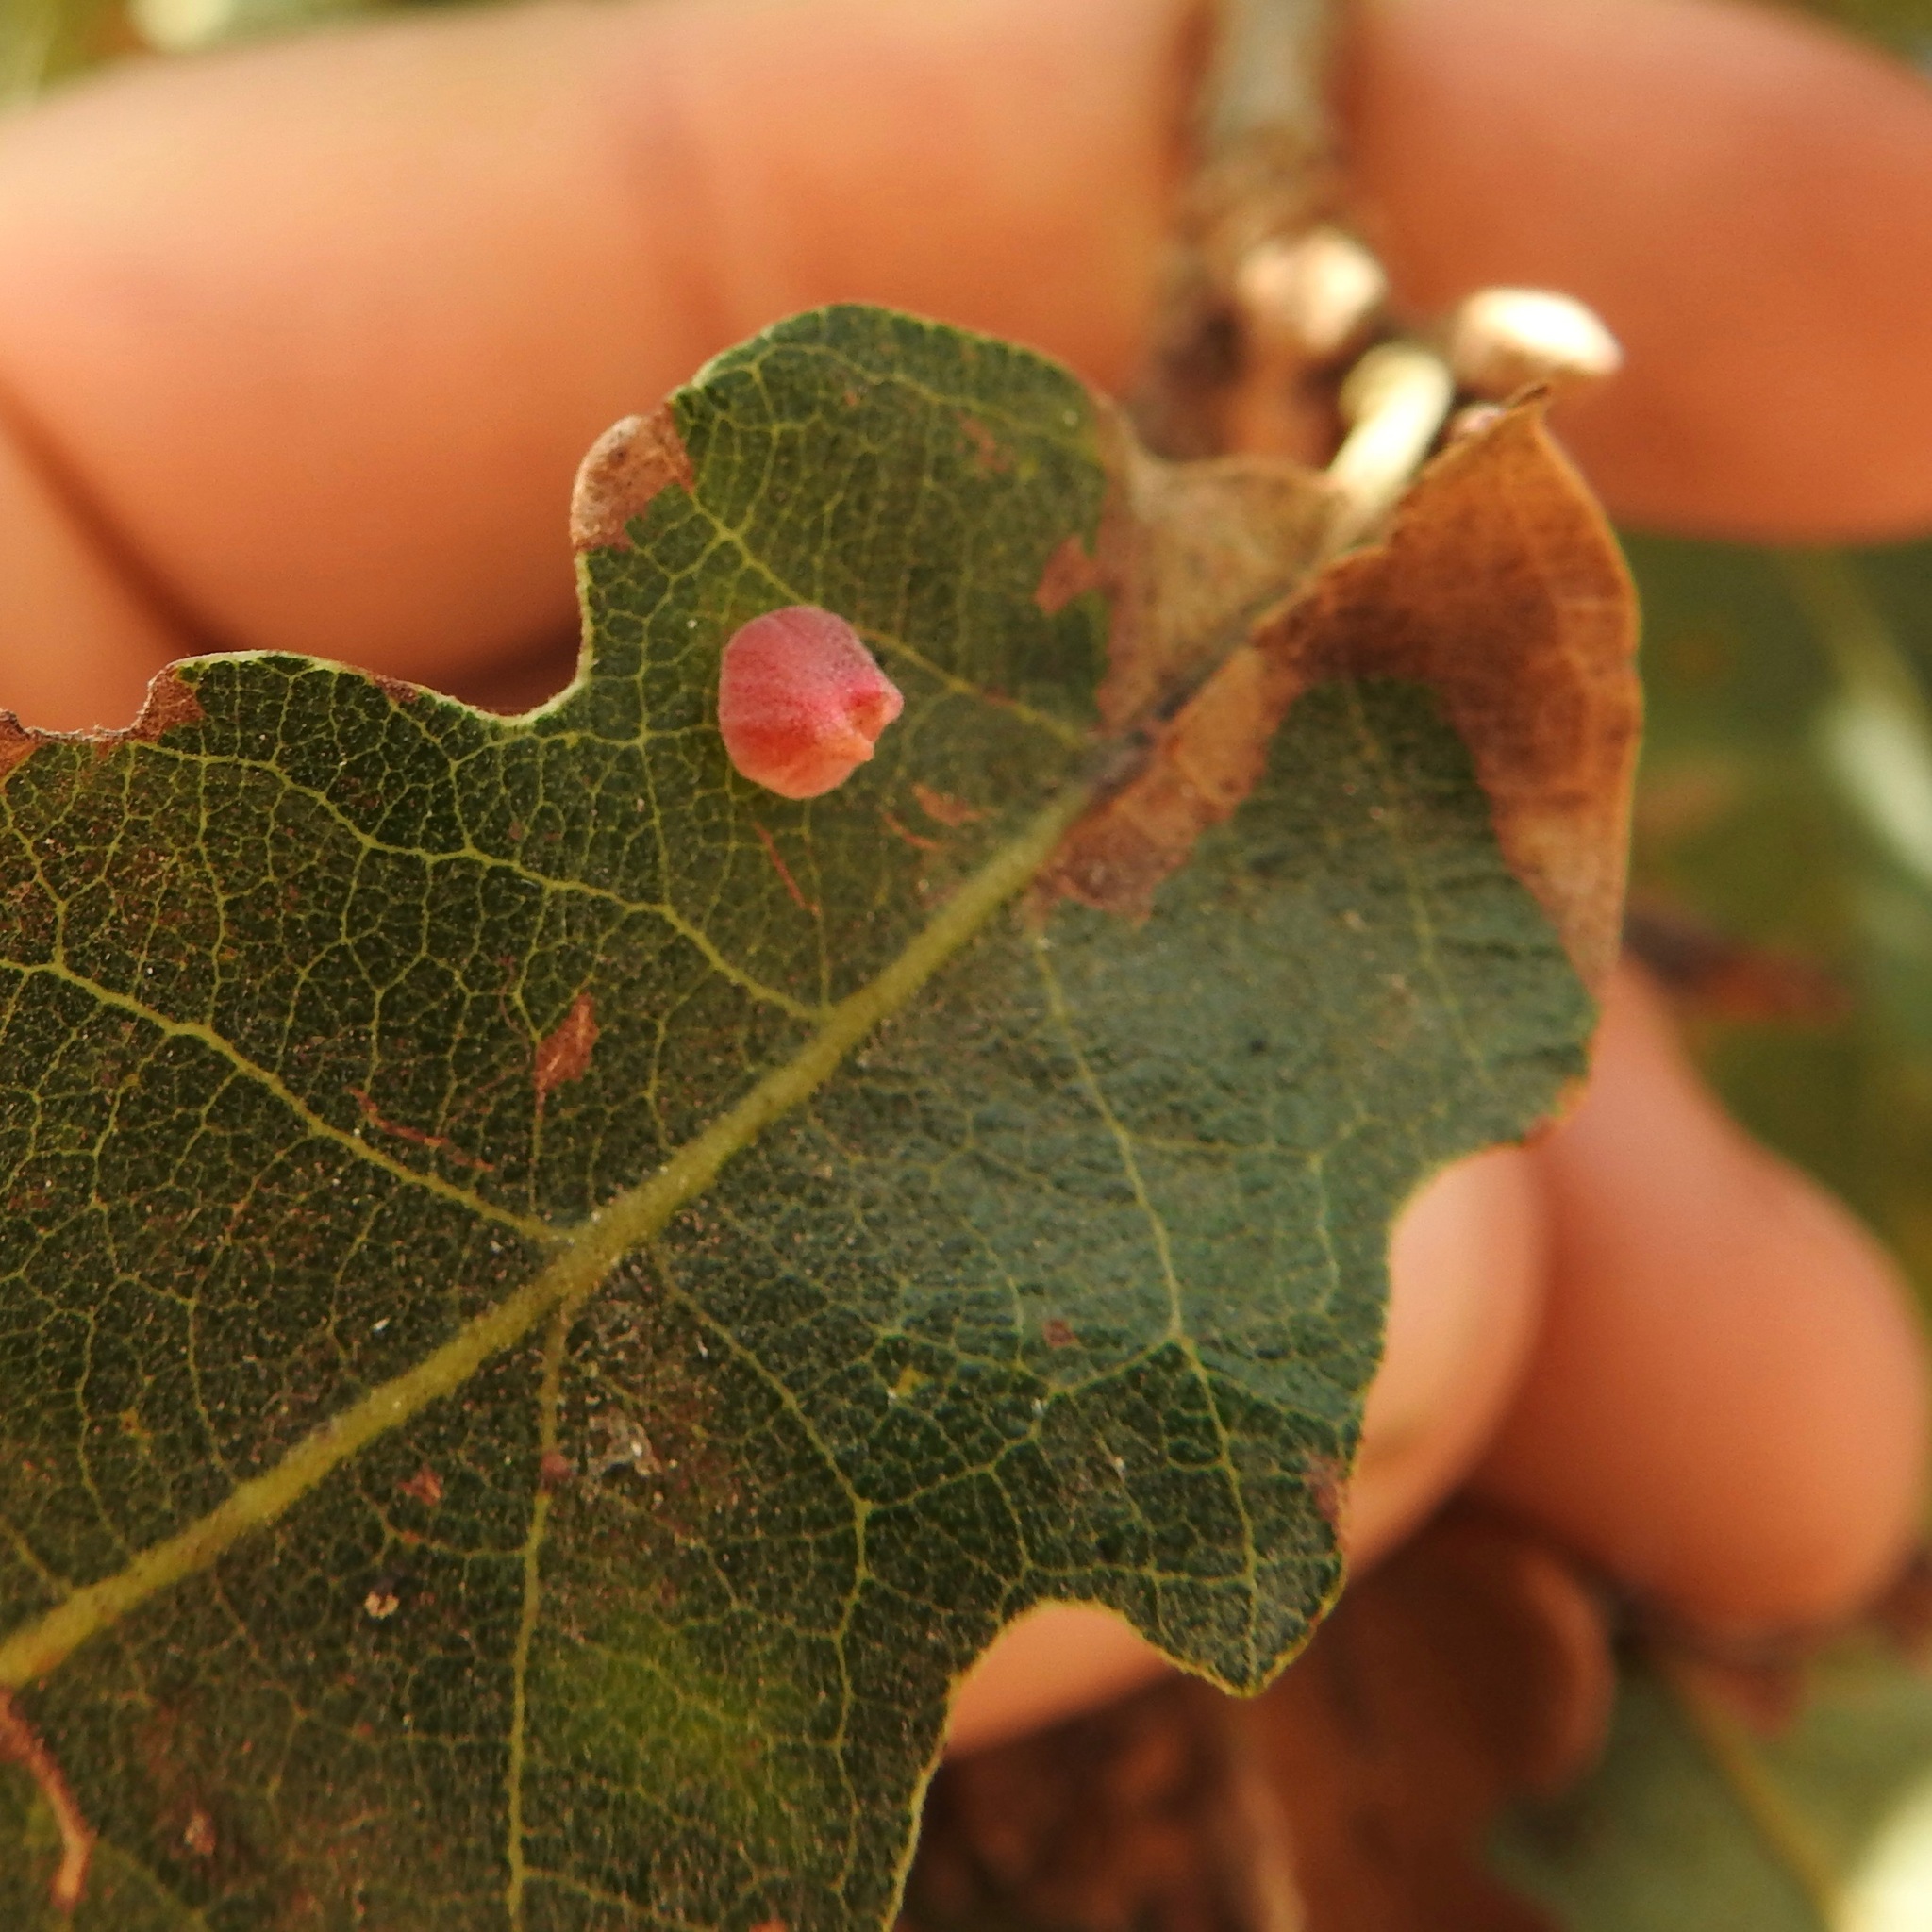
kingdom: Animalia
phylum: Arthropoda
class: Insecta
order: Hymenoptera
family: Cynipidae
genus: Andricus
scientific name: Andricus
